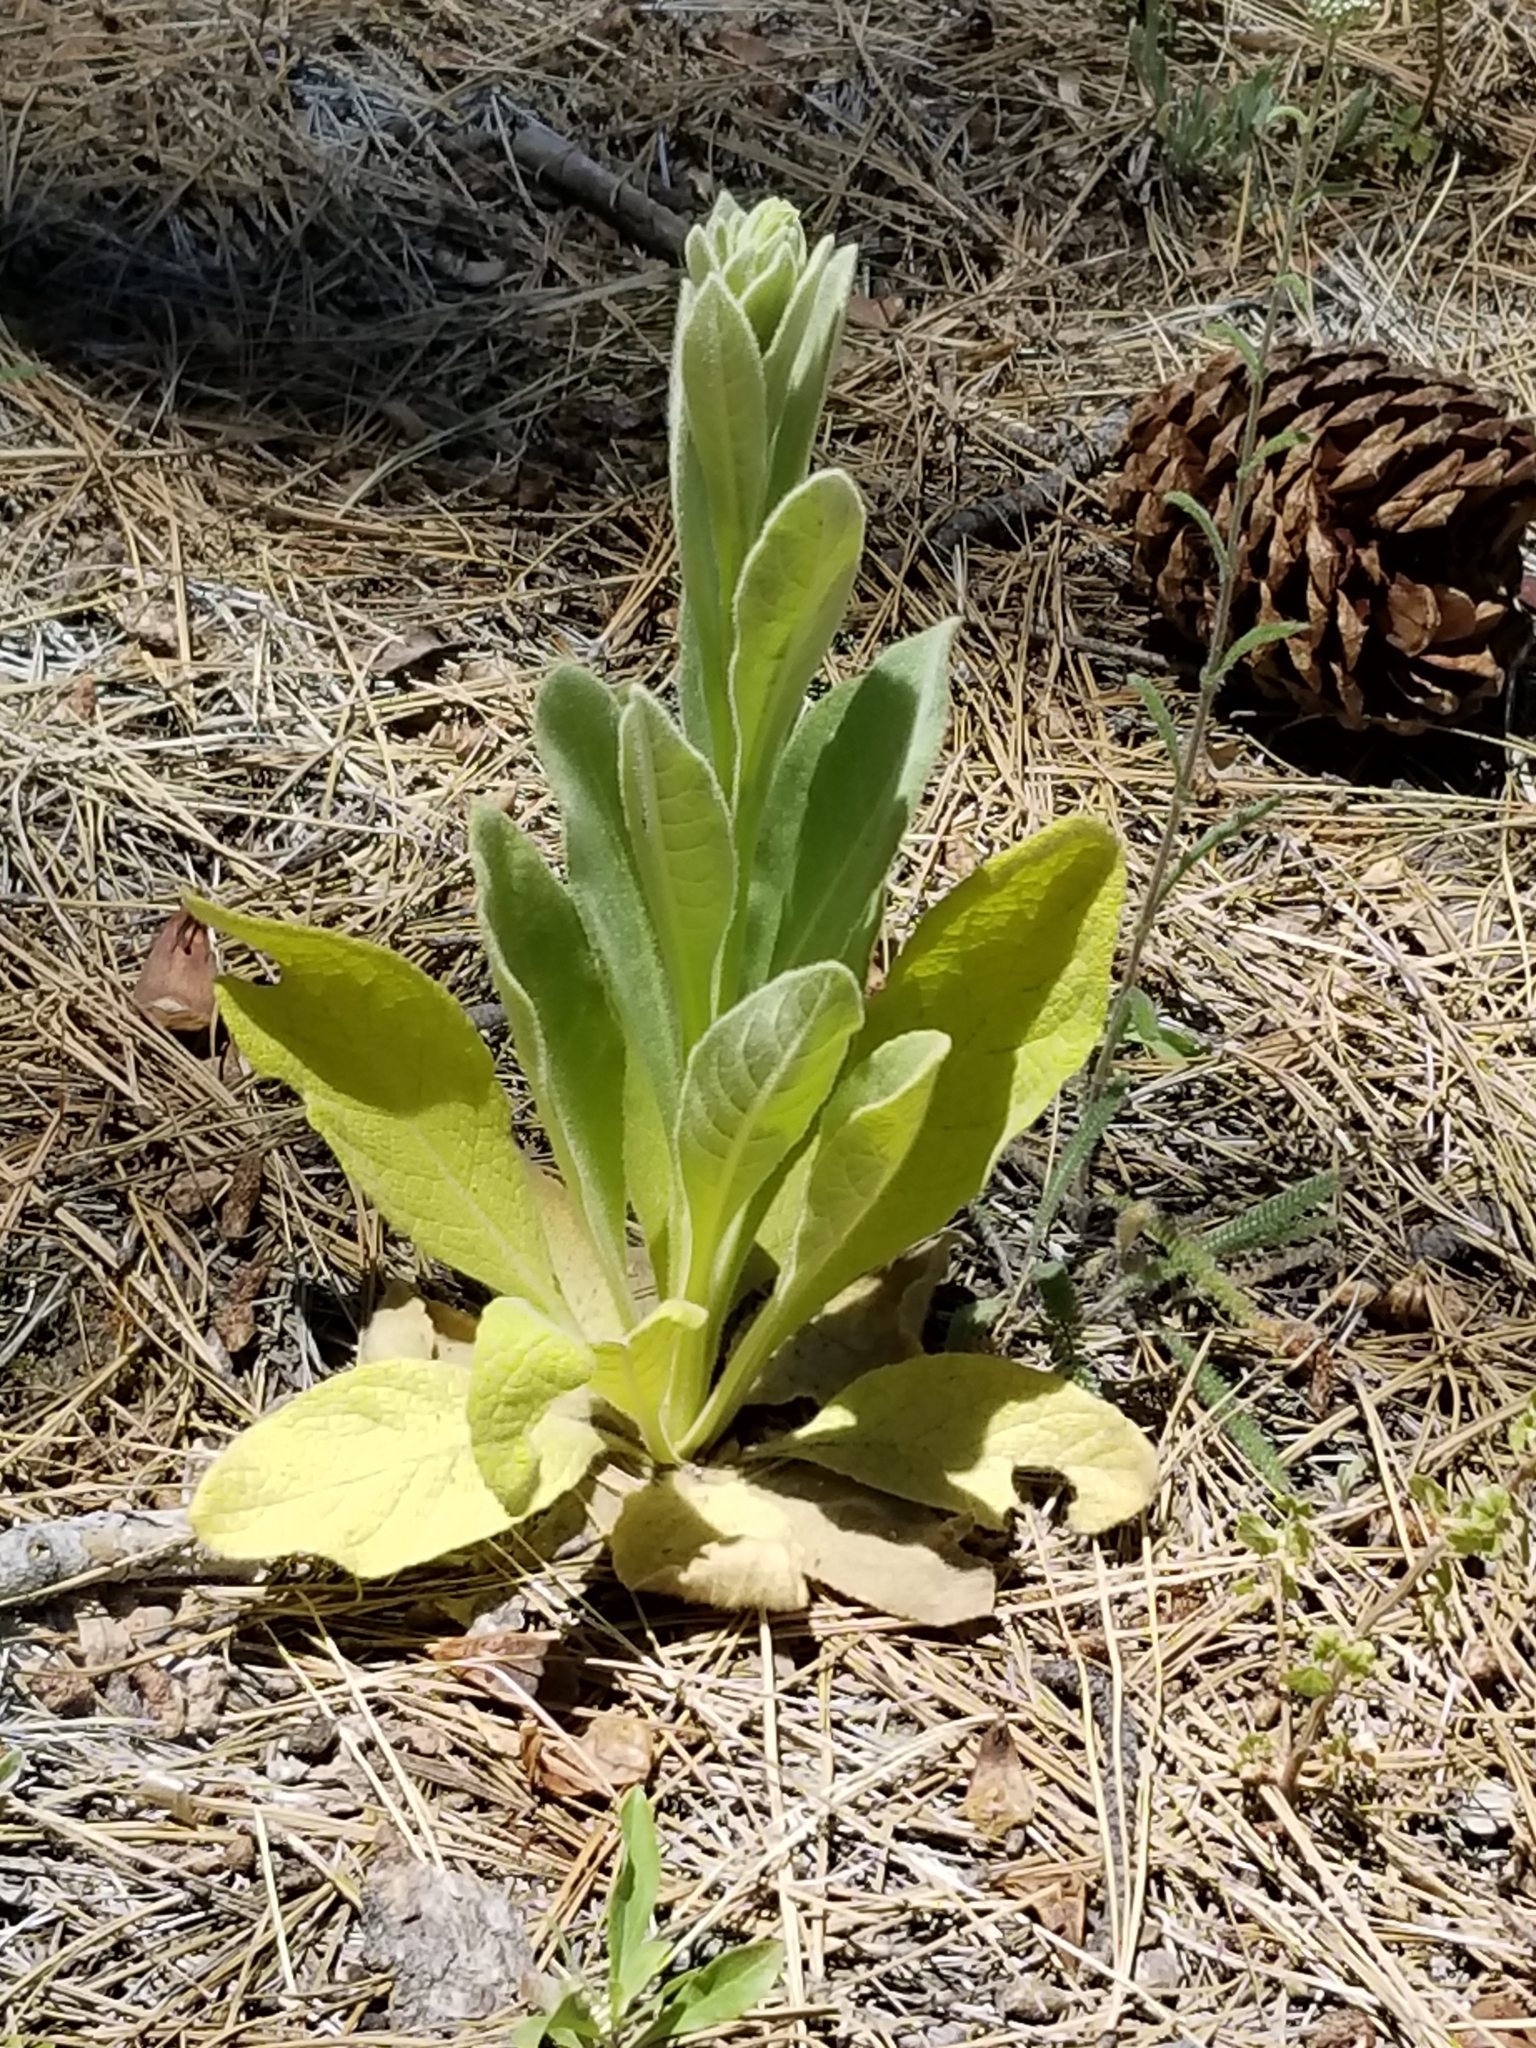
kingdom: Plantae
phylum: Tracheophyta
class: Magnoliopsida
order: Lamiales
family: Scrophulariaceae
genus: Verbascum
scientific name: Verbascum thapsus
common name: Common mullein
